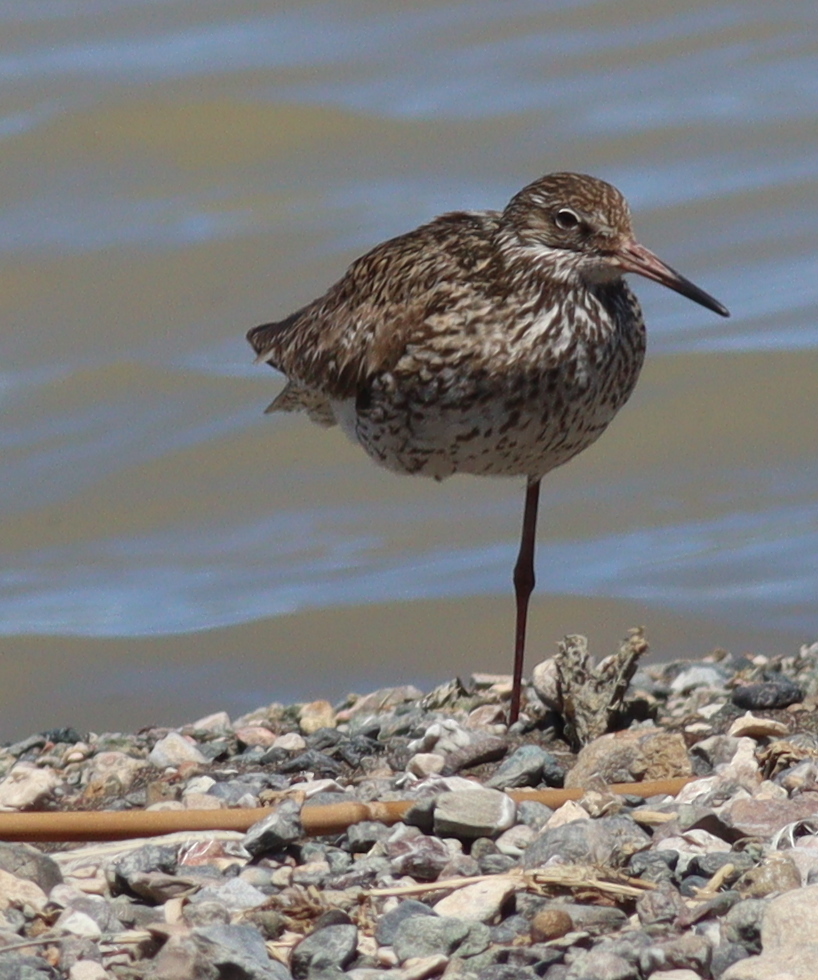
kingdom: Animalia
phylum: Chordata
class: Aves
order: Charadriiformes
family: Scolopacidae
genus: Tringa
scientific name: Tringa totanus
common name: Common redshank
